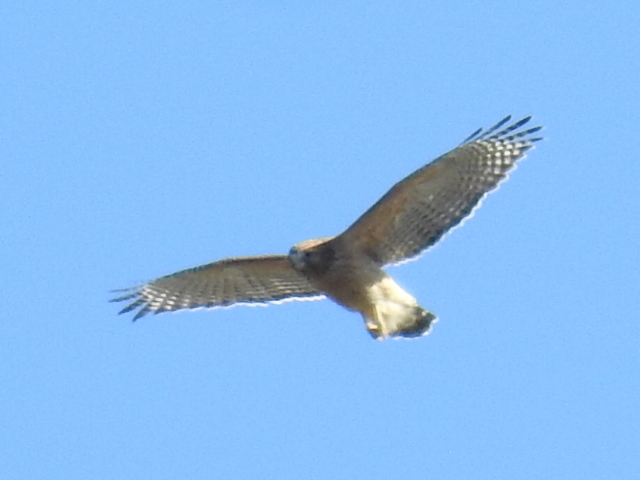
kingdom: Animalia
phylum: Chordata
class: Aves
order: Accipitriformes
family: Accipitridae
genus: Buteo
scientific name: Buteo lineatus
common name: Red-shouldered hawk
